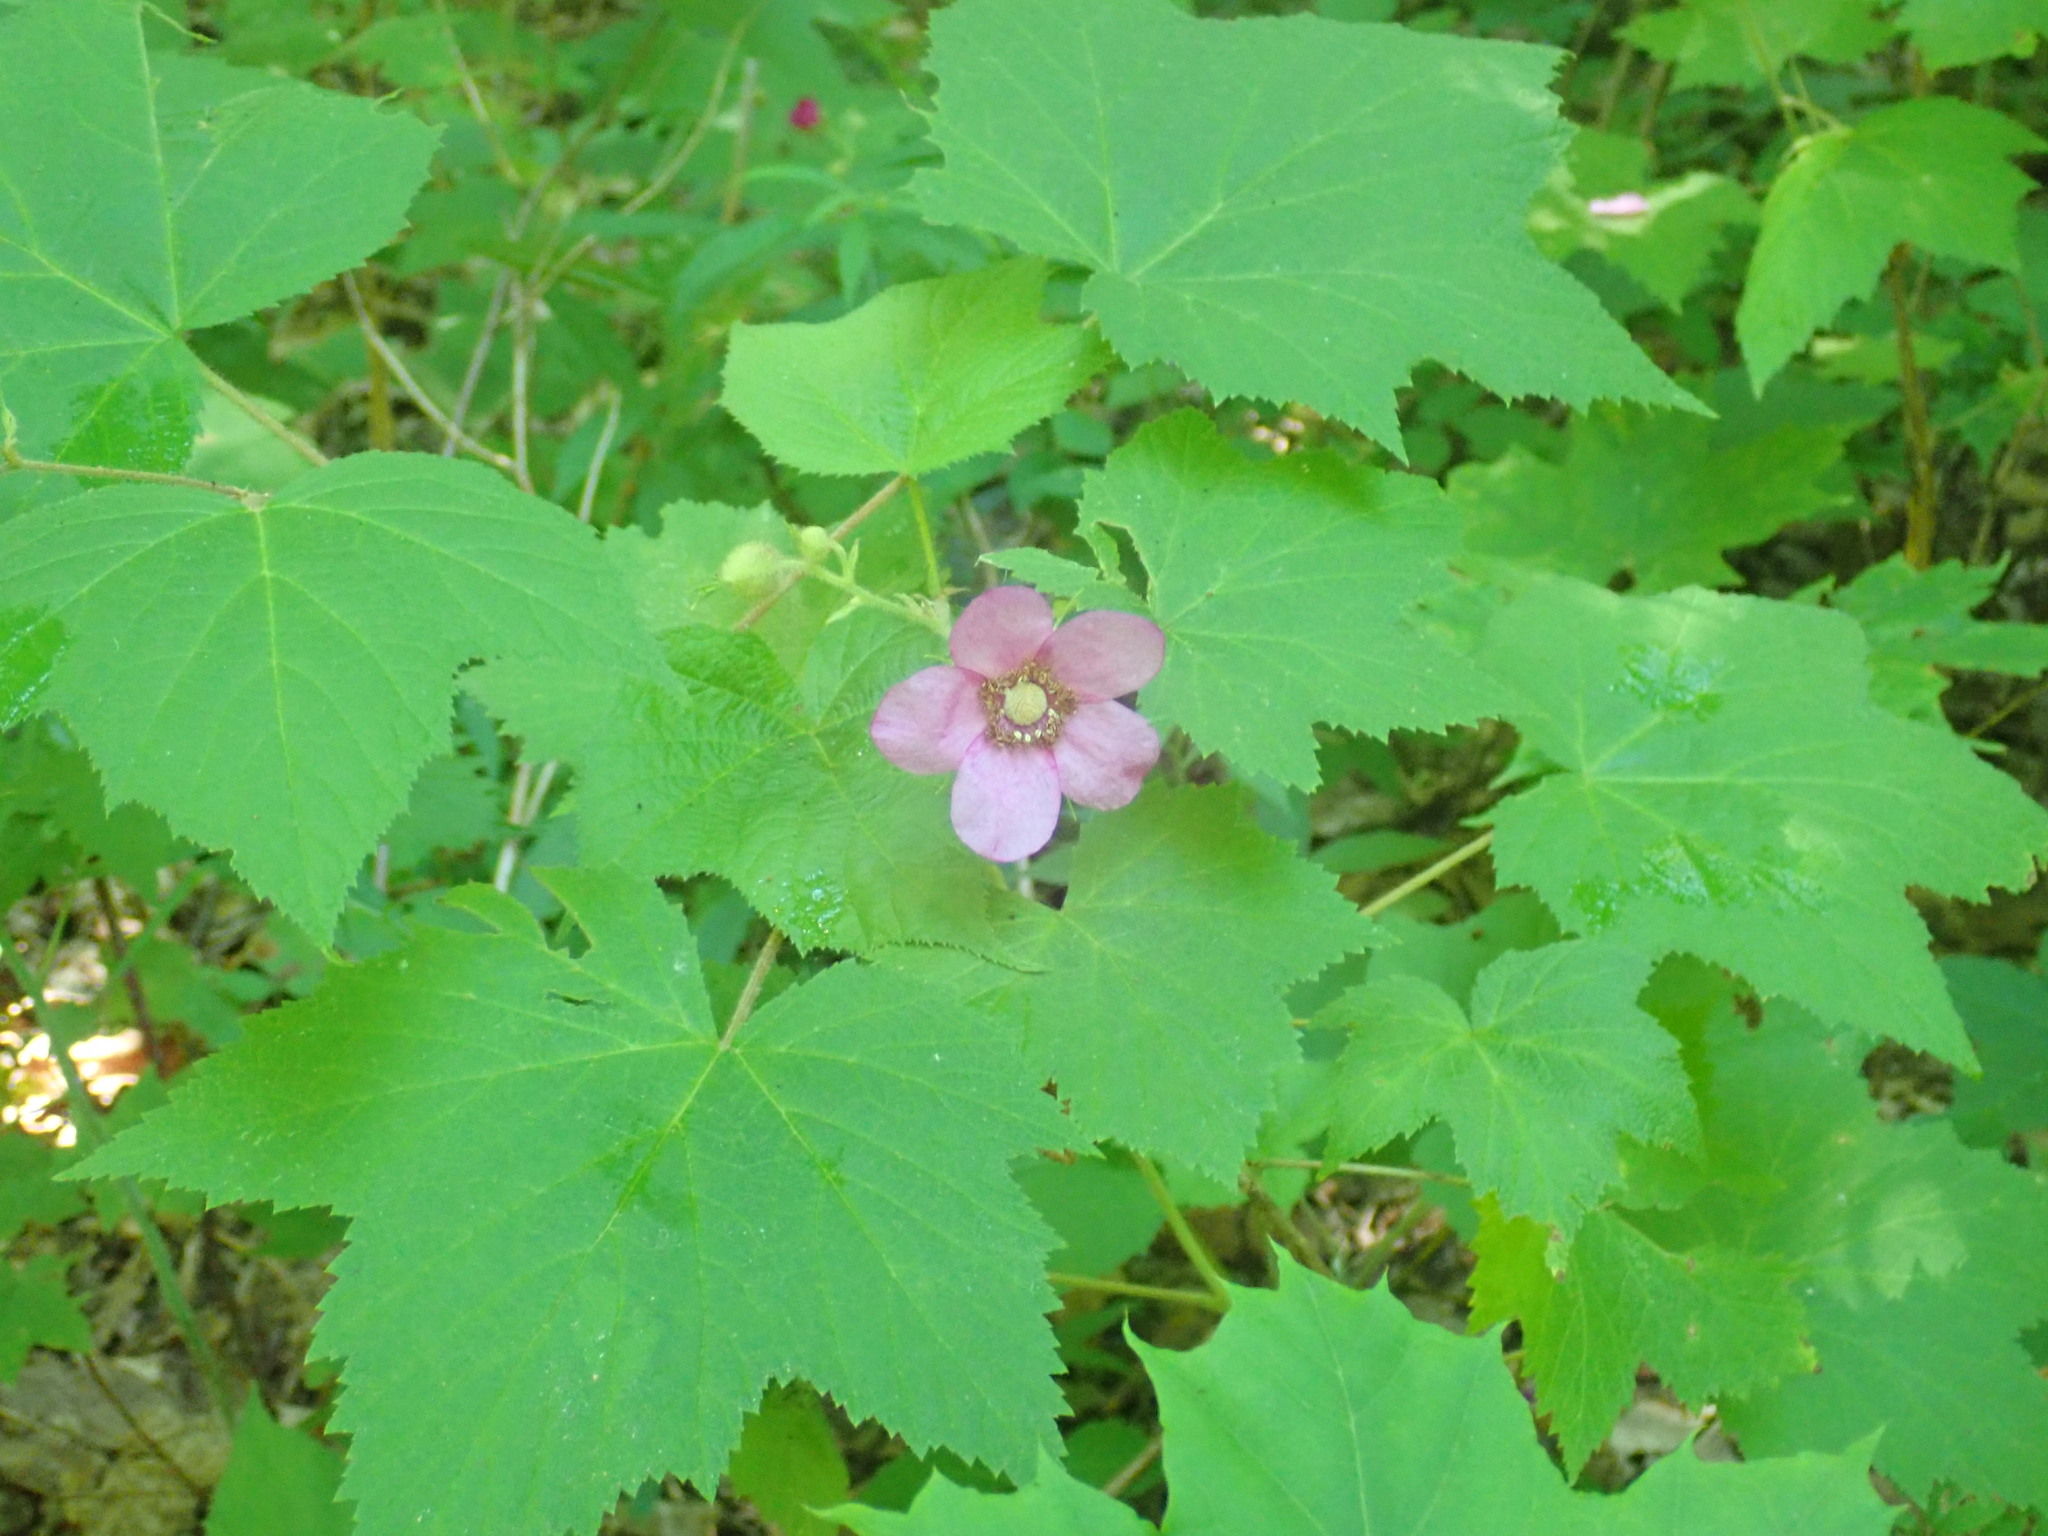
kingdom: Plantae
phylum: Tracheophyta
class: Magnoliopsida
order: Rosales
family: Rosaceae
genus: Rubus
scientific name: Rubus odoratus
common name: Purple-flowered raspberry
